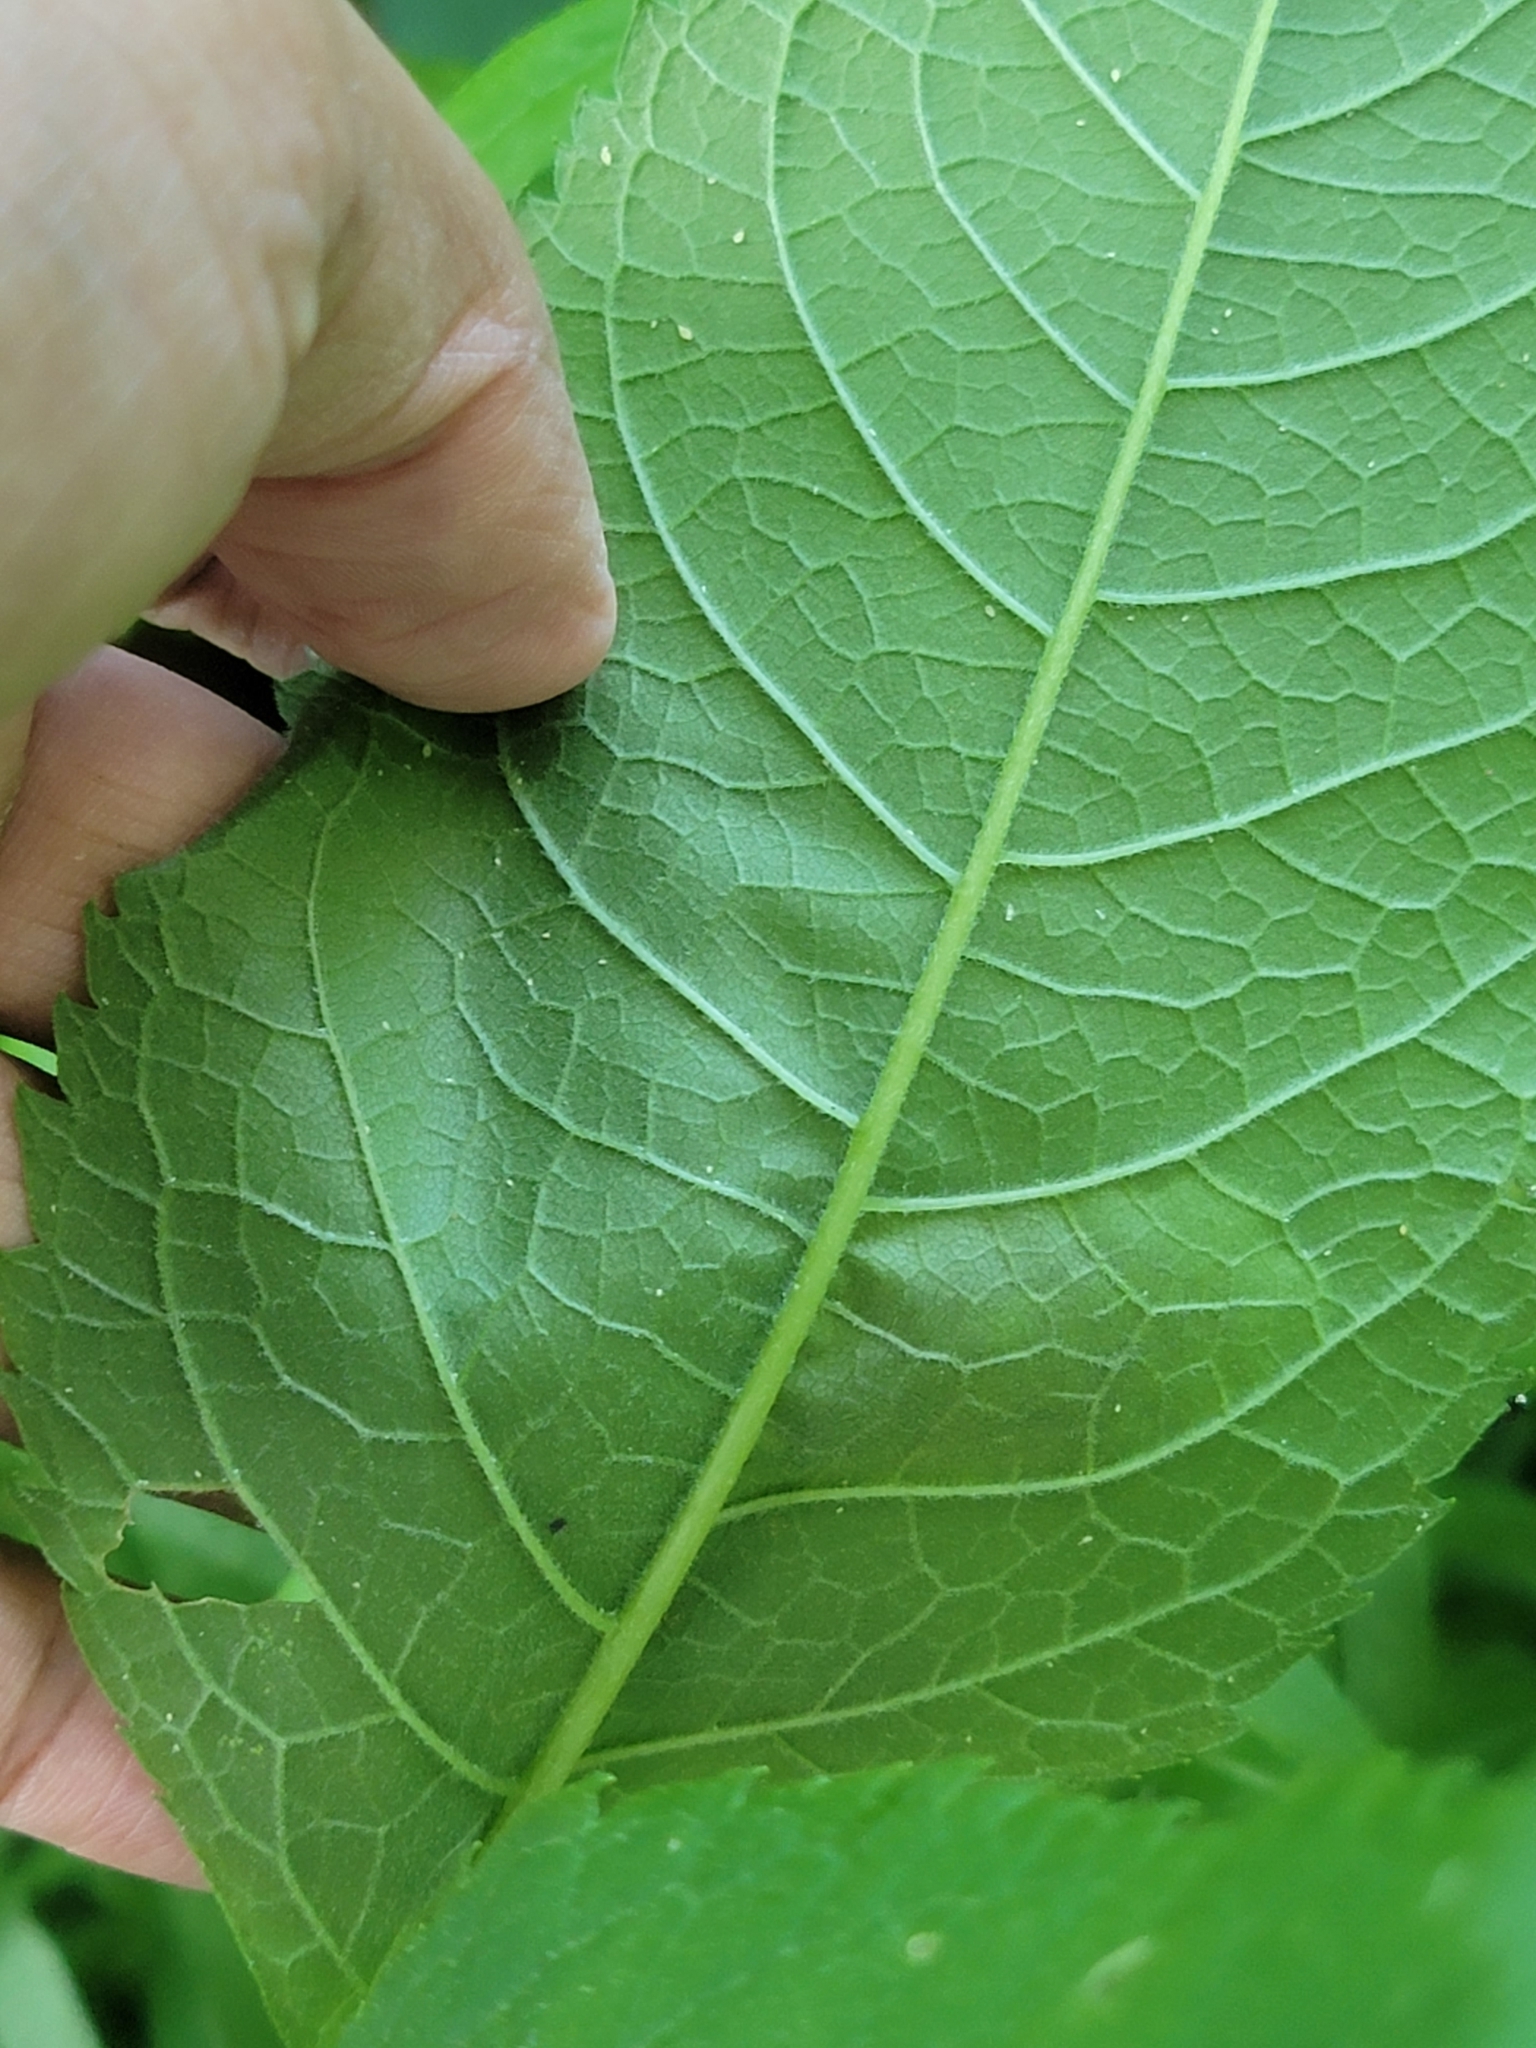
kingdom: Animalia
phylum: Arthropoda
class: Insecta
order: Diptera
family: Agromyzidae
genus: Calycomyza
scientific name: Calycomyza flavinotum
